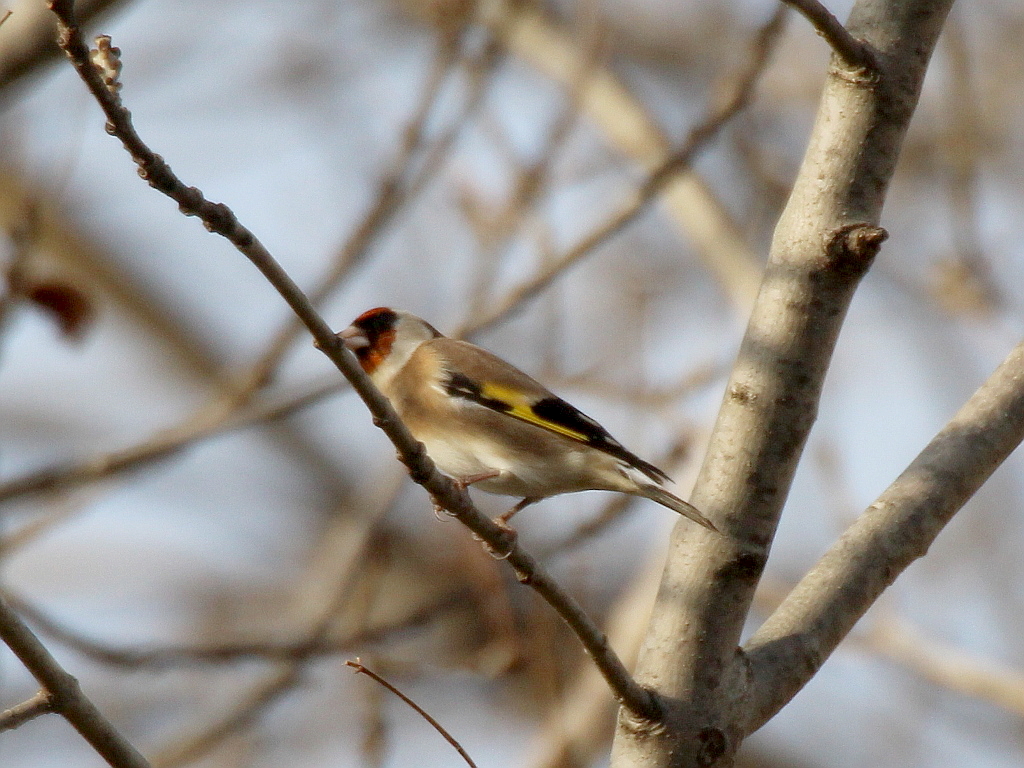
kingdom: Animalia
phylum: Chordata
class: Aves
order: Passeriformes
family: Fringillidae
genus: Carduelis
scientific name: Carduelis carduelis
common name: European goldfinch
